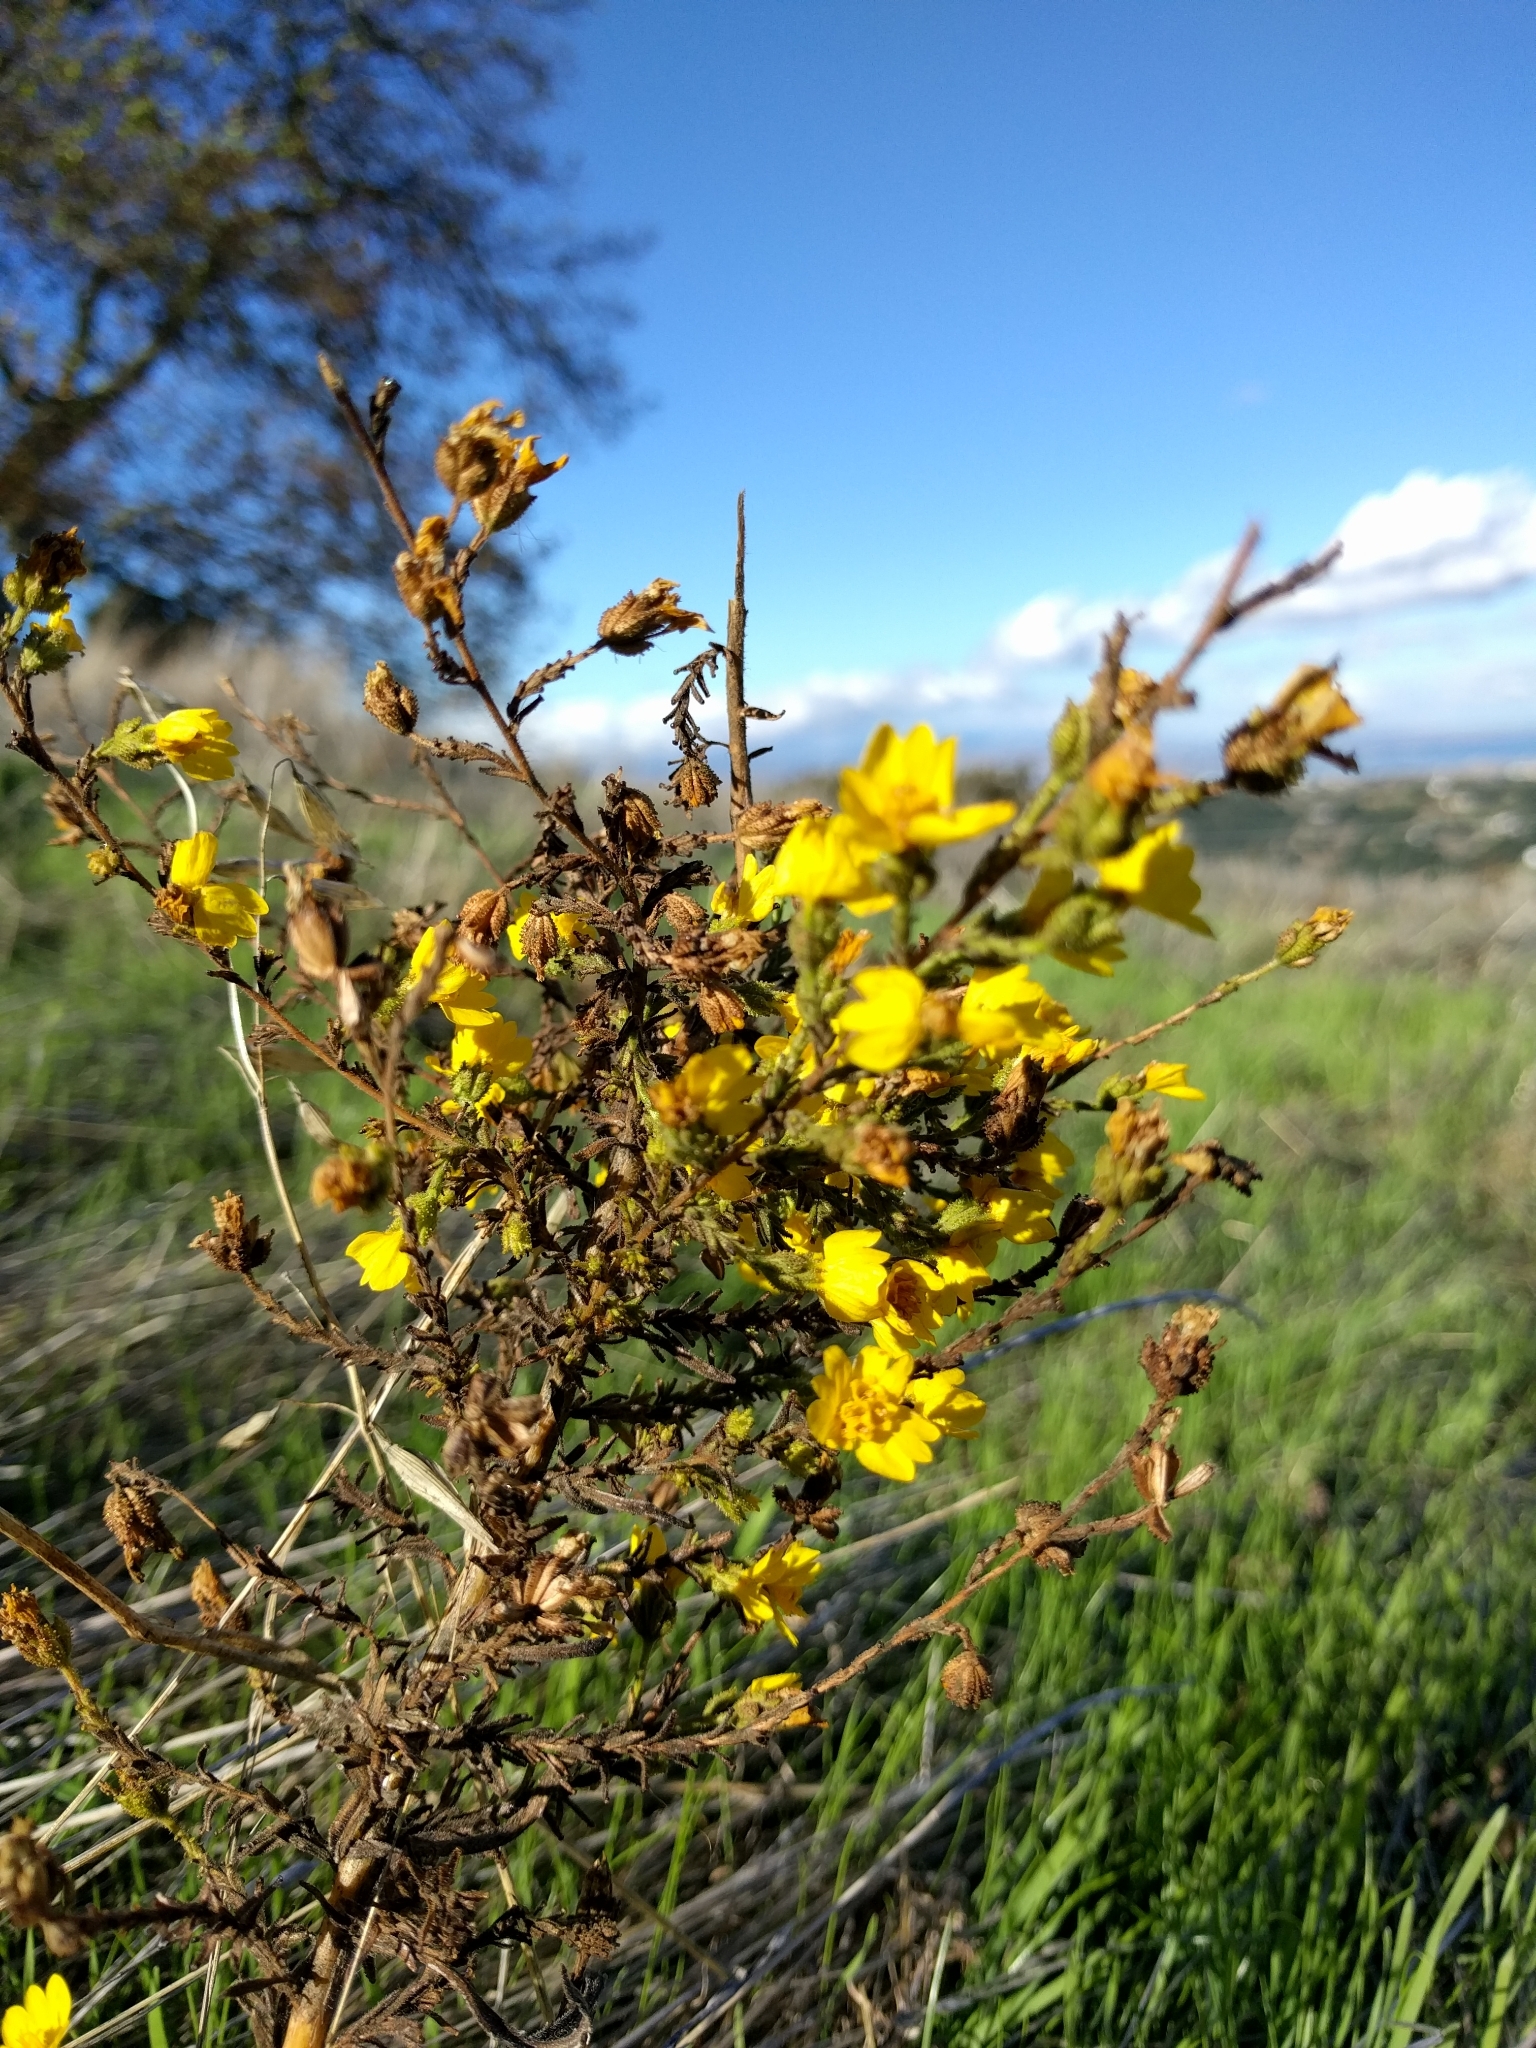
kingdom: Plantae
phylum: Tracheophyta
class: Magnoliopsida
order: Asterales
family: Asteraceae
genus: Holocarpha
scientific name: Holocarpha heermannii
